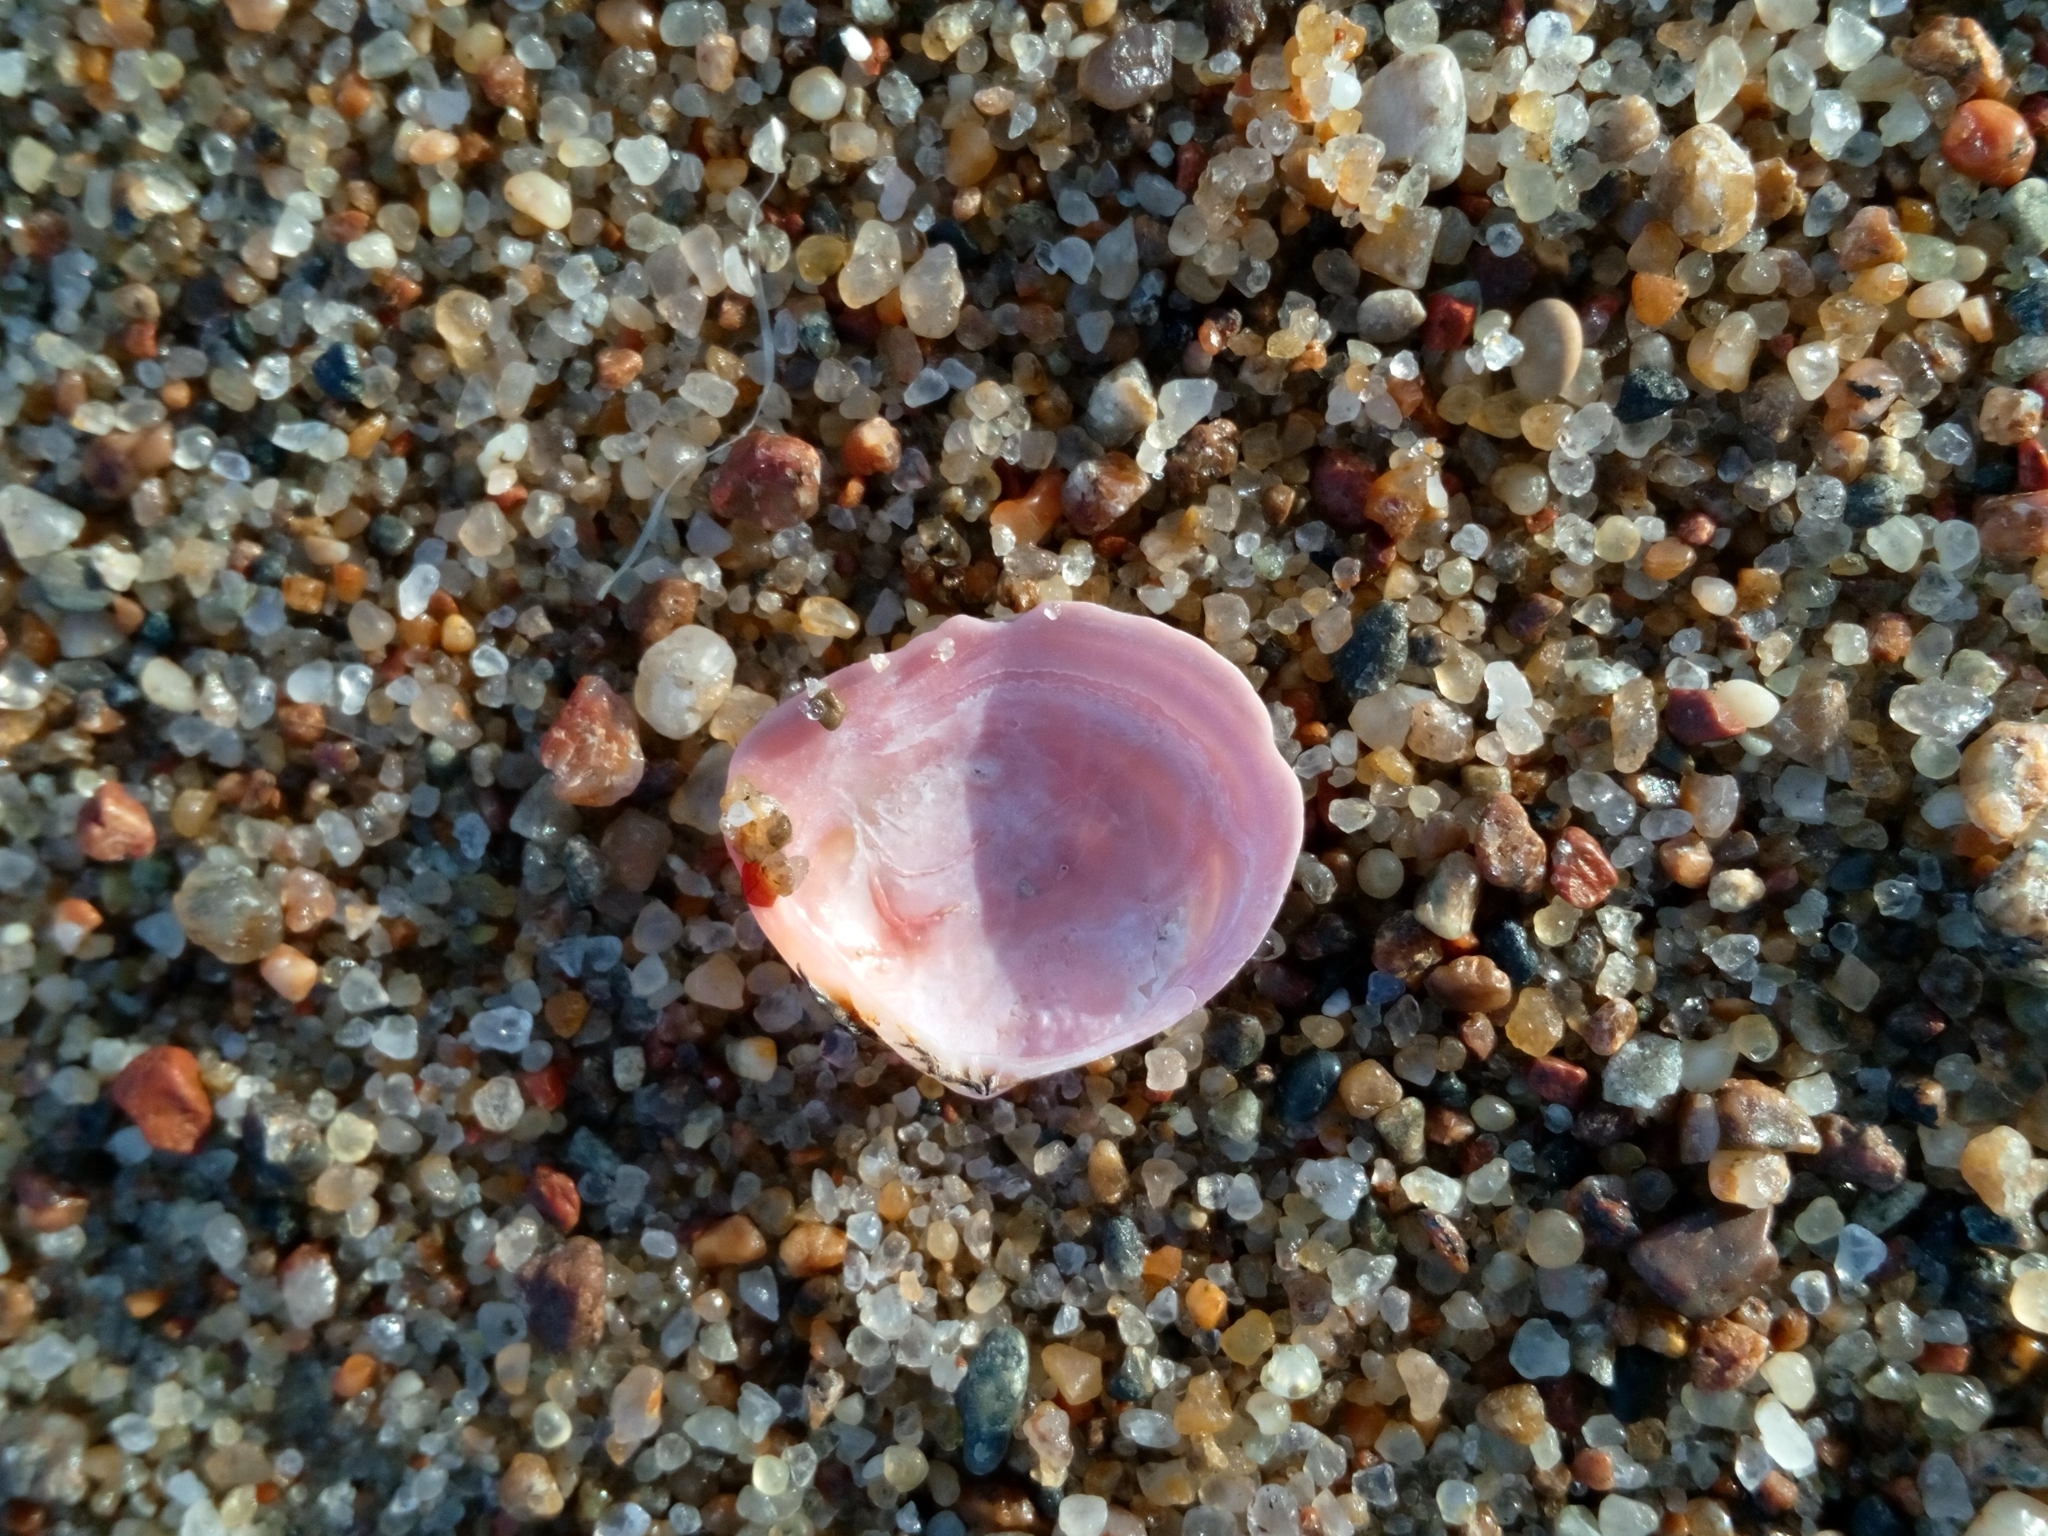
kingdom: Animalia
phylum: Mollusca
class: Bivalvia
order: Cardiida
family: Tellinidae
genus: Macoma
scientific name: Macoma balthica
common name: Baltic tellin
